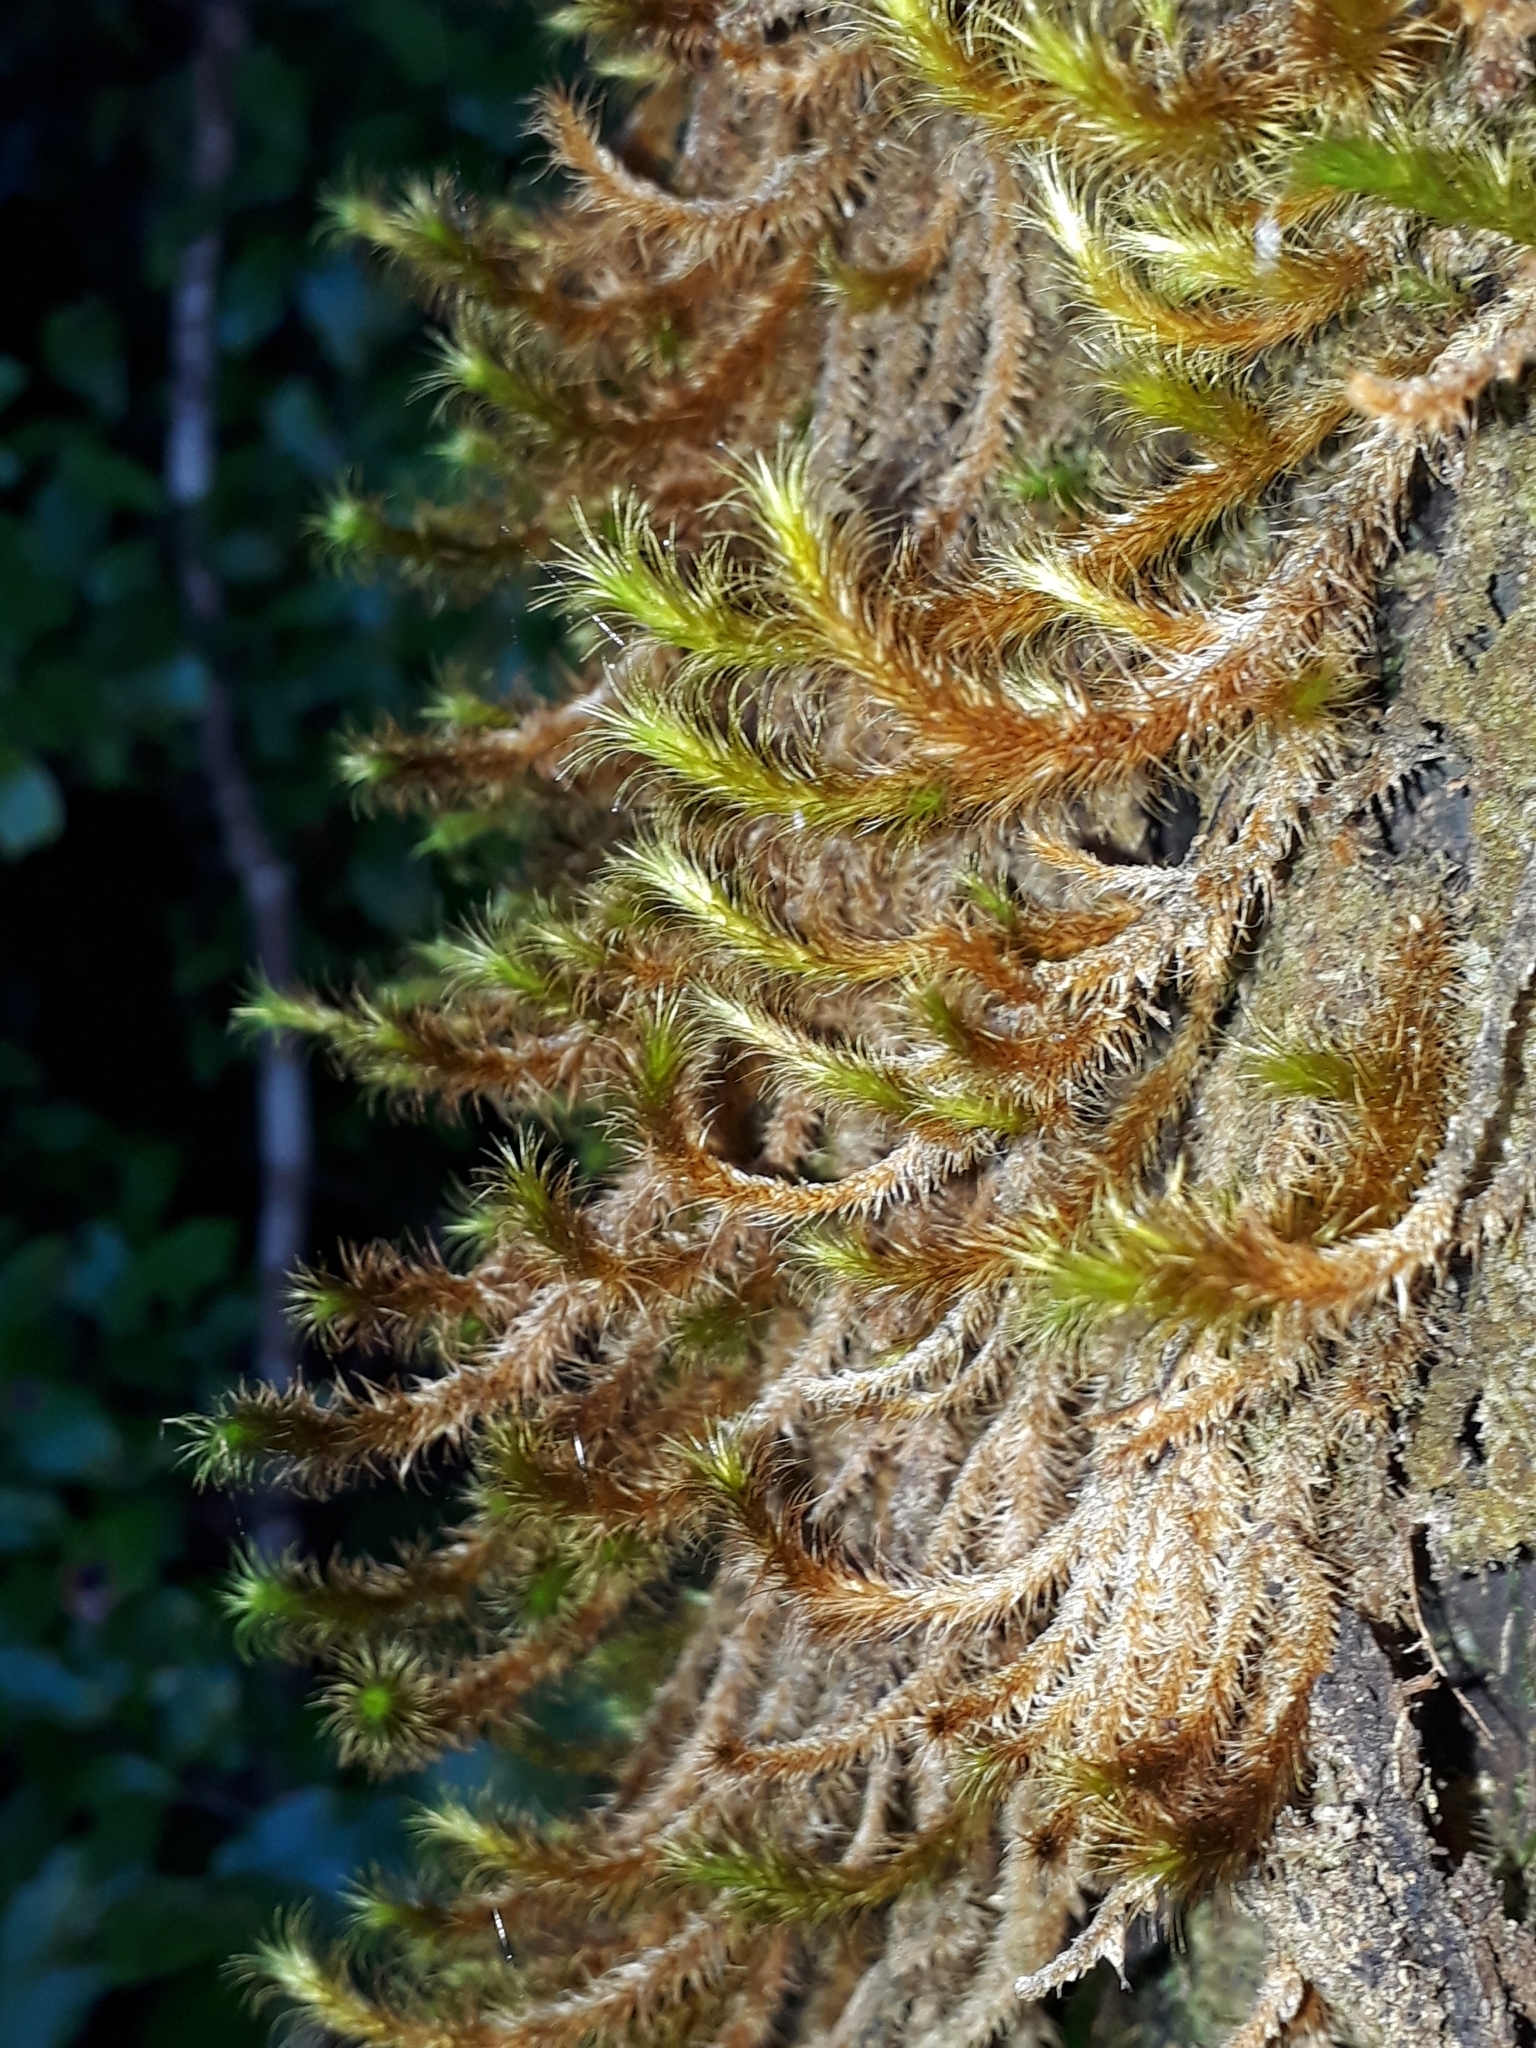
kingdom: Plantae
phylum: Bryophyta
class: Bryopsida
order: Hypnodendrales
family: Spiridentaceae
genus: Cyrtopus
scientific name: Cyrtopus setosus
